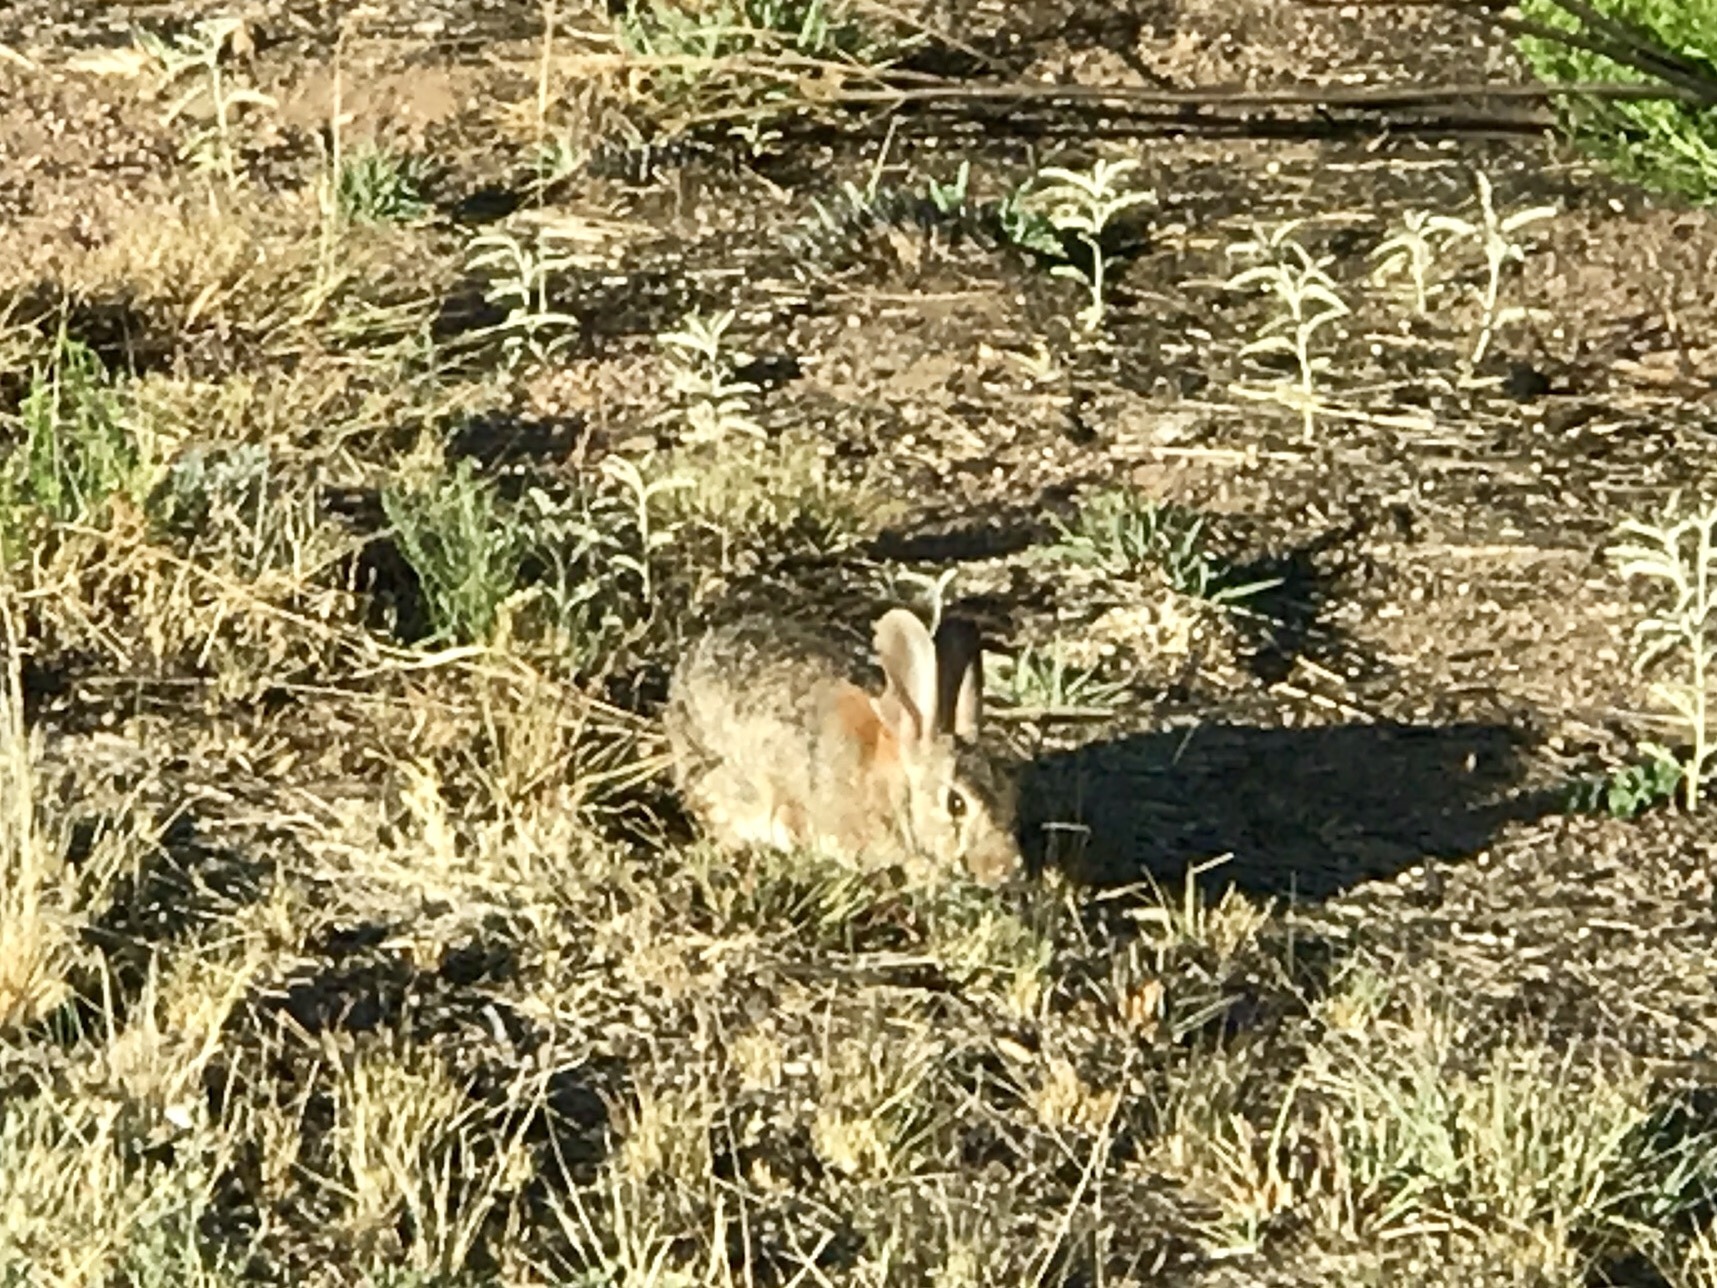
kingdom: Animalia
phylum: Chordata
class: Mammalia
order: Lagomorpha
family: Leporidae
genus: Sylvilagus
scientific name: Sylvilagus audubonii
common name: Desert cottontail
